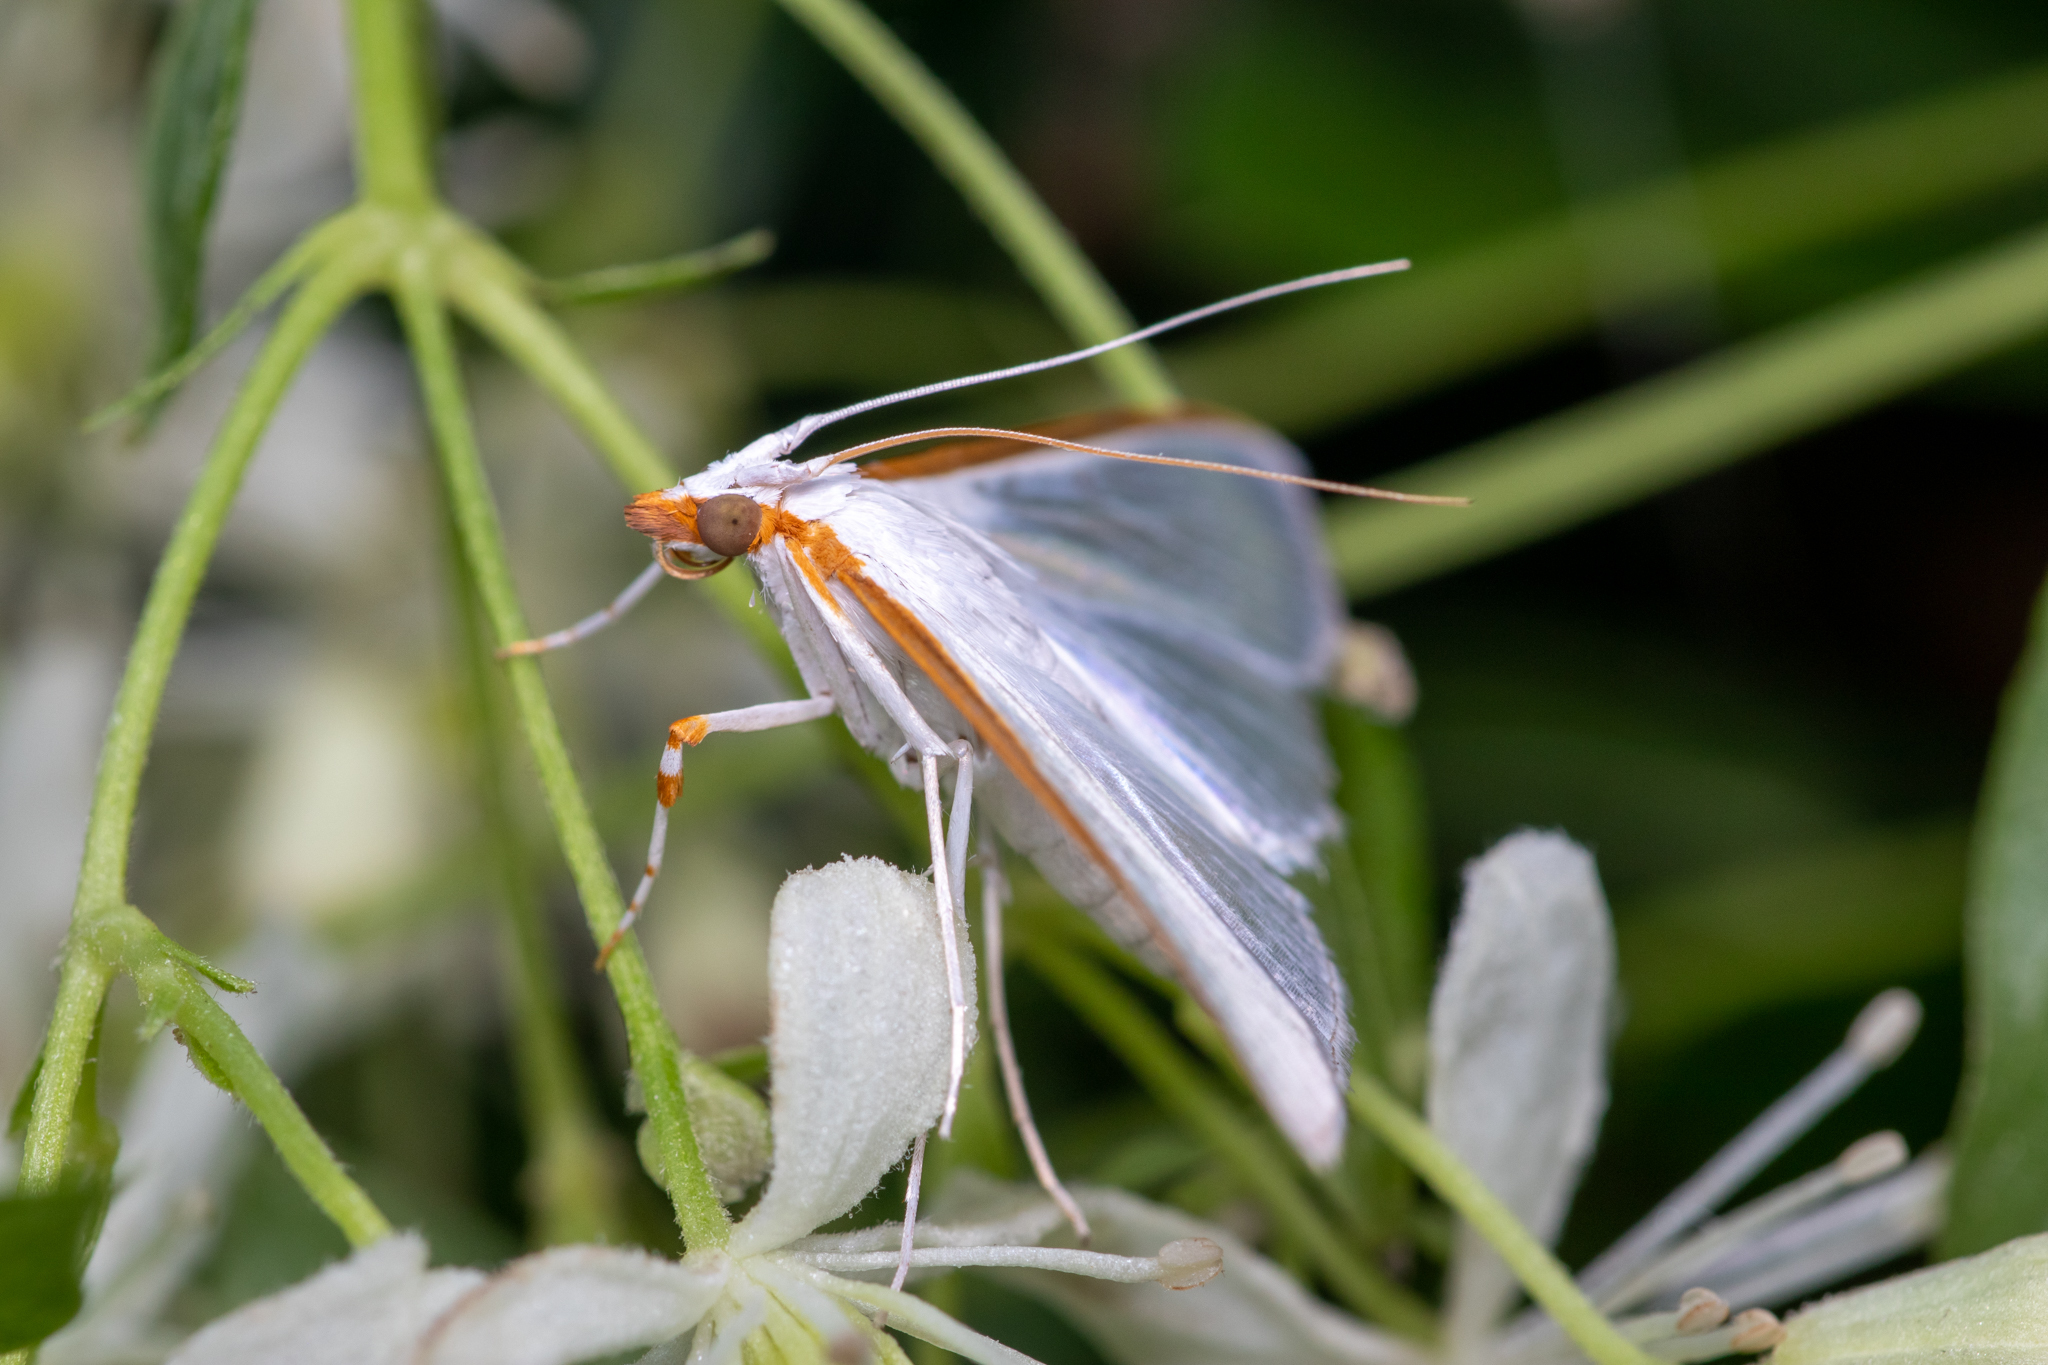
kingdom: Animalia
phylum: Arthropoda
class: Insecta
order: Lepidoptera
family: Crambidae
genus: Diaphania
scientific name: Diaphania costata
